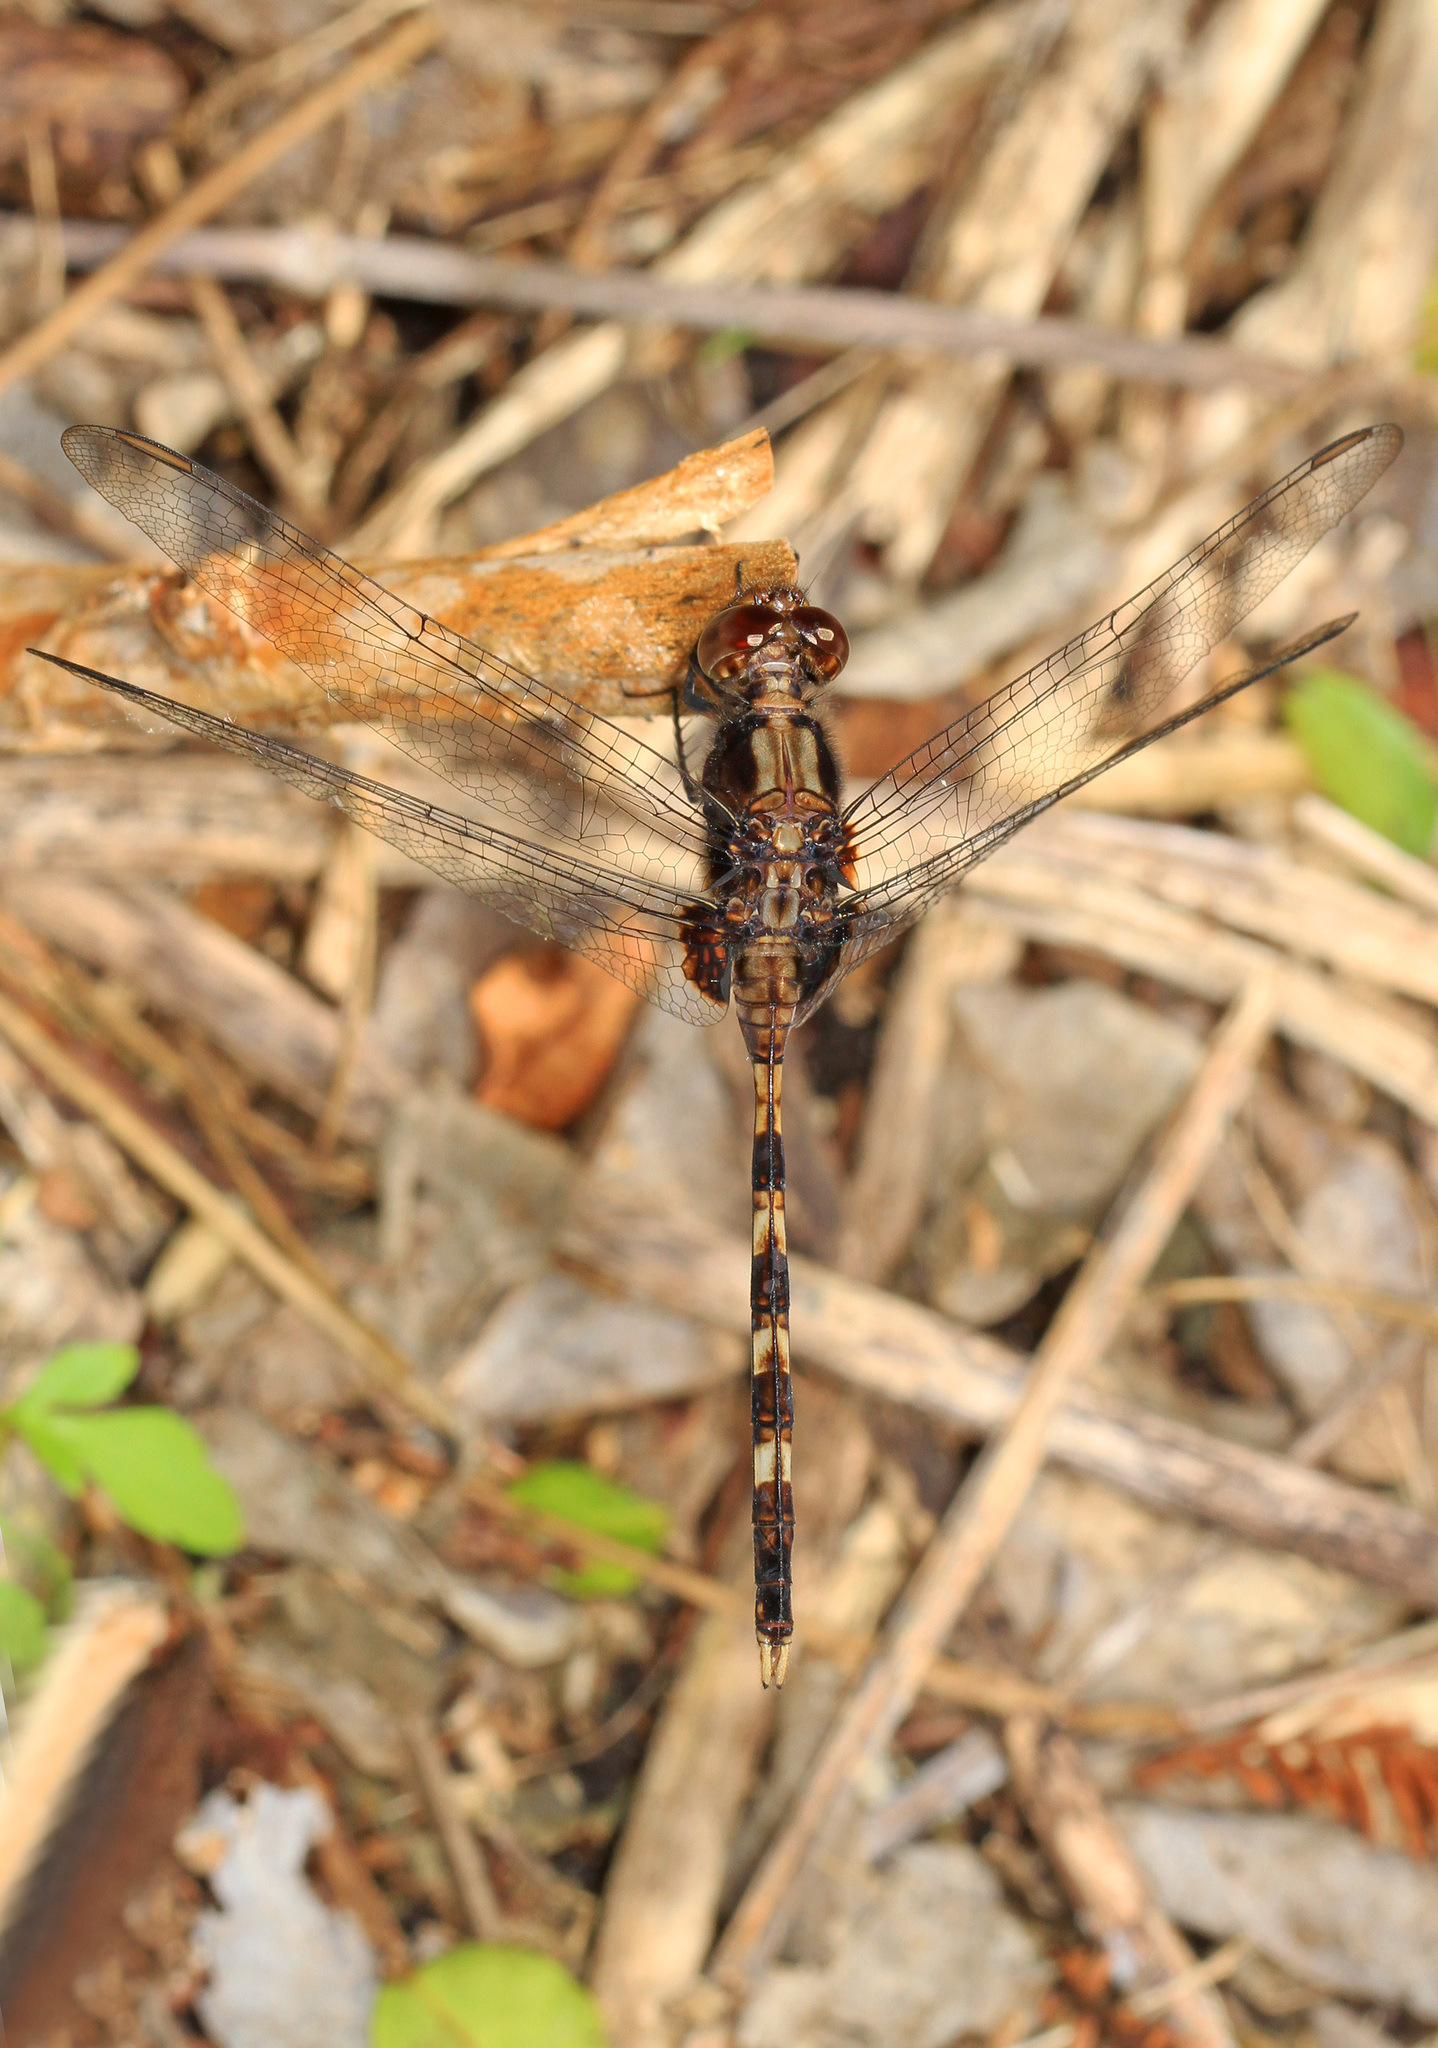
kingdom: Animalia
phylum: Arthropoda
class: Insecta
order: Odonata
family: Libellulidae
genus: Erythemis
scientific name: Erythemis plebeja
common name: Pin-tailed pondhawk
